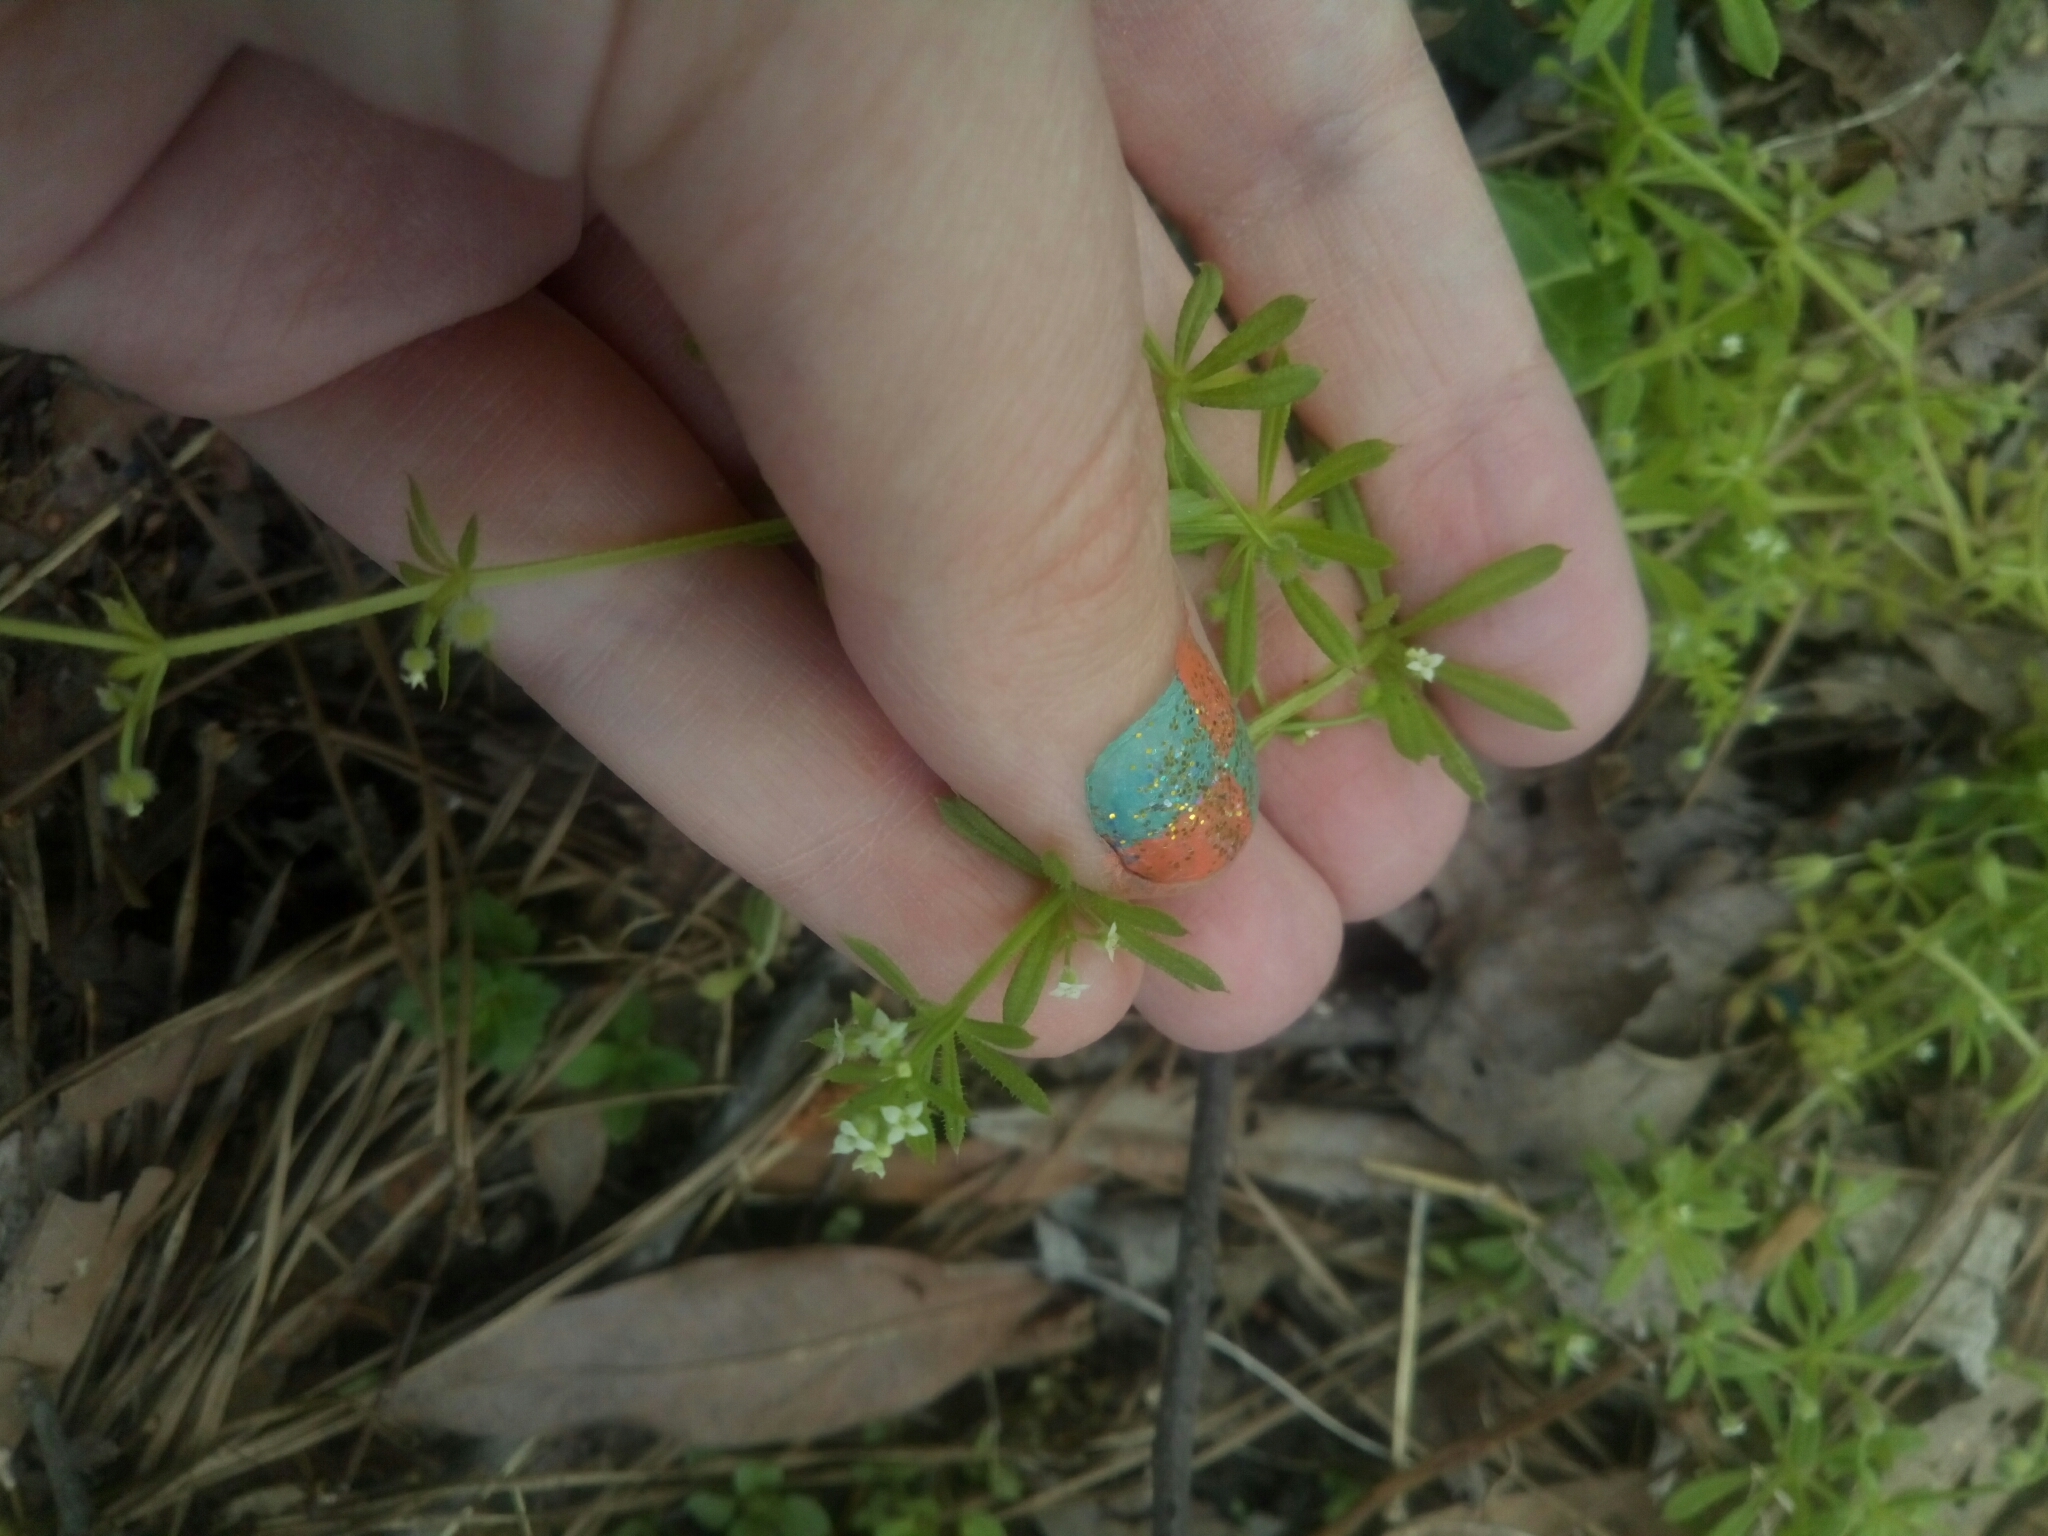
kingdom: Plantae
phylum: Tracheophyta
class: Magnoliopsida
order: Gentianales
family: Rubiaceae
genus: Galium
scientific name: Galium aparine
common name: Cleavers
